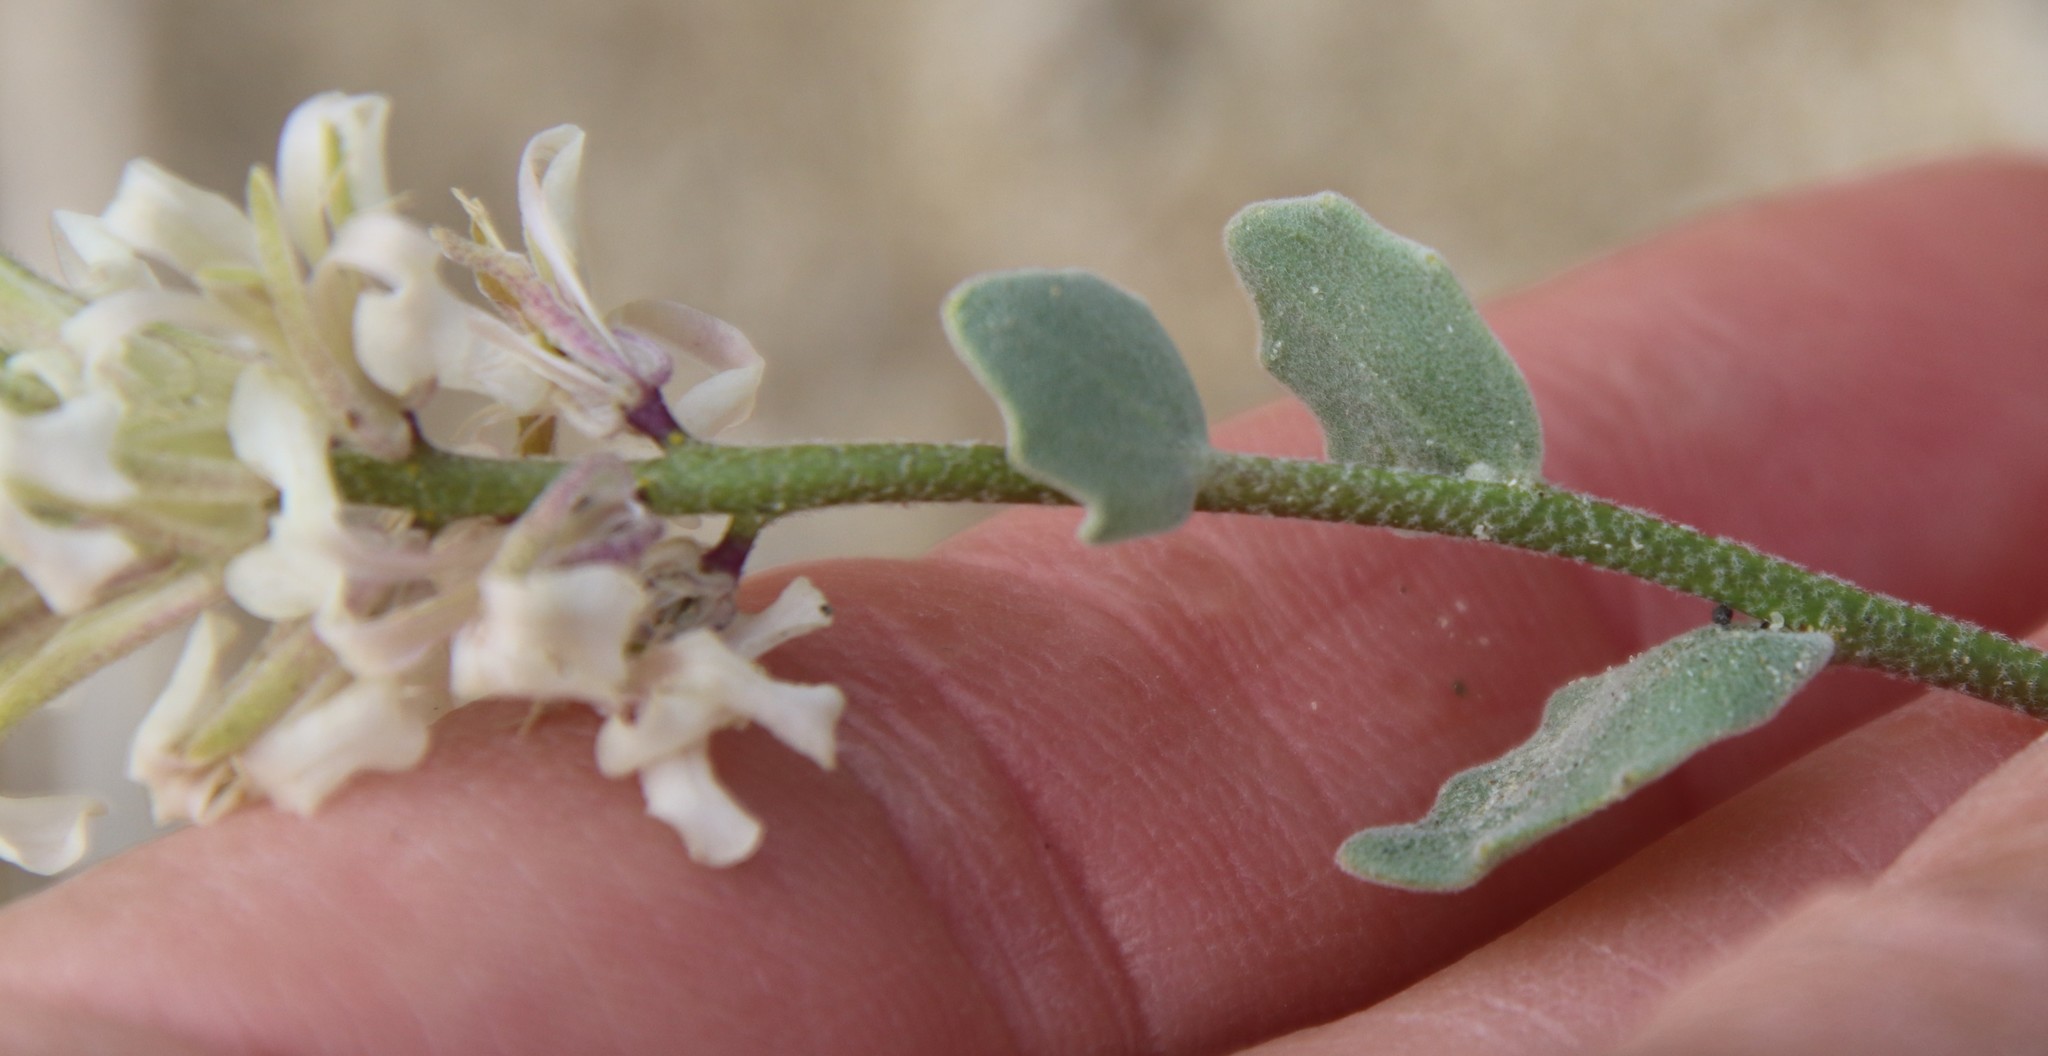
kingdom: Plantae
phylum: Tracheophyta
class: Magnoliopsida
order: Brassicales
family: Brassicaceae
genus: Dithyrea
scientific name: Dithyrea californica
